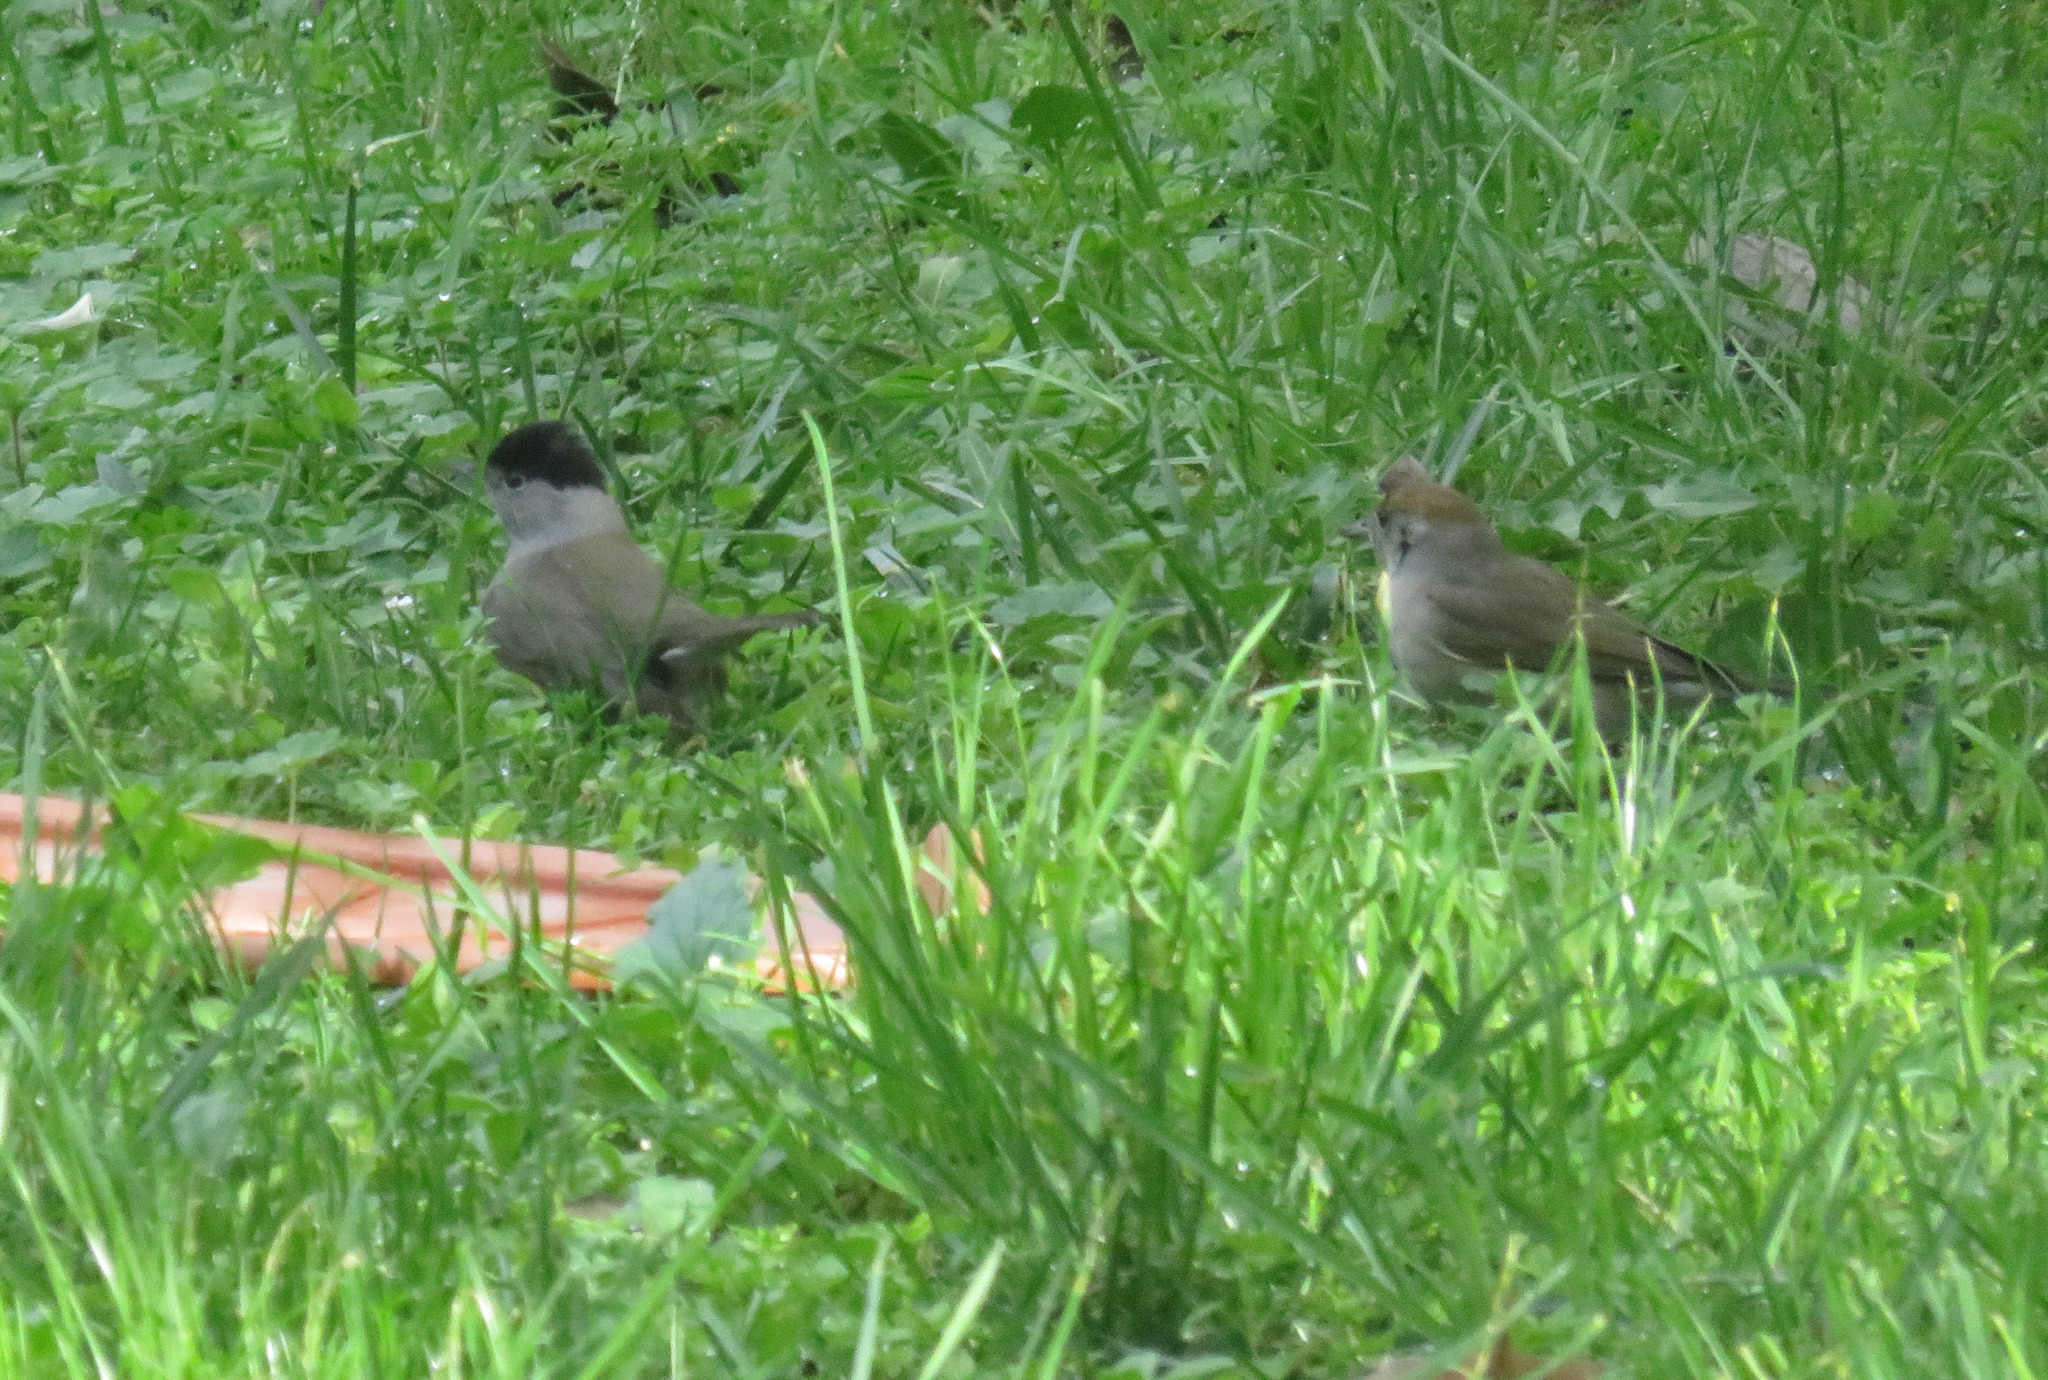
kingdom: Animalia
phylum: Chordata
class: Aves
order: Passeriformes
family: Sylviidae
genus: Sylvia
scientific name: Sylvia atricapilla
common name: Eurasian blackcap
